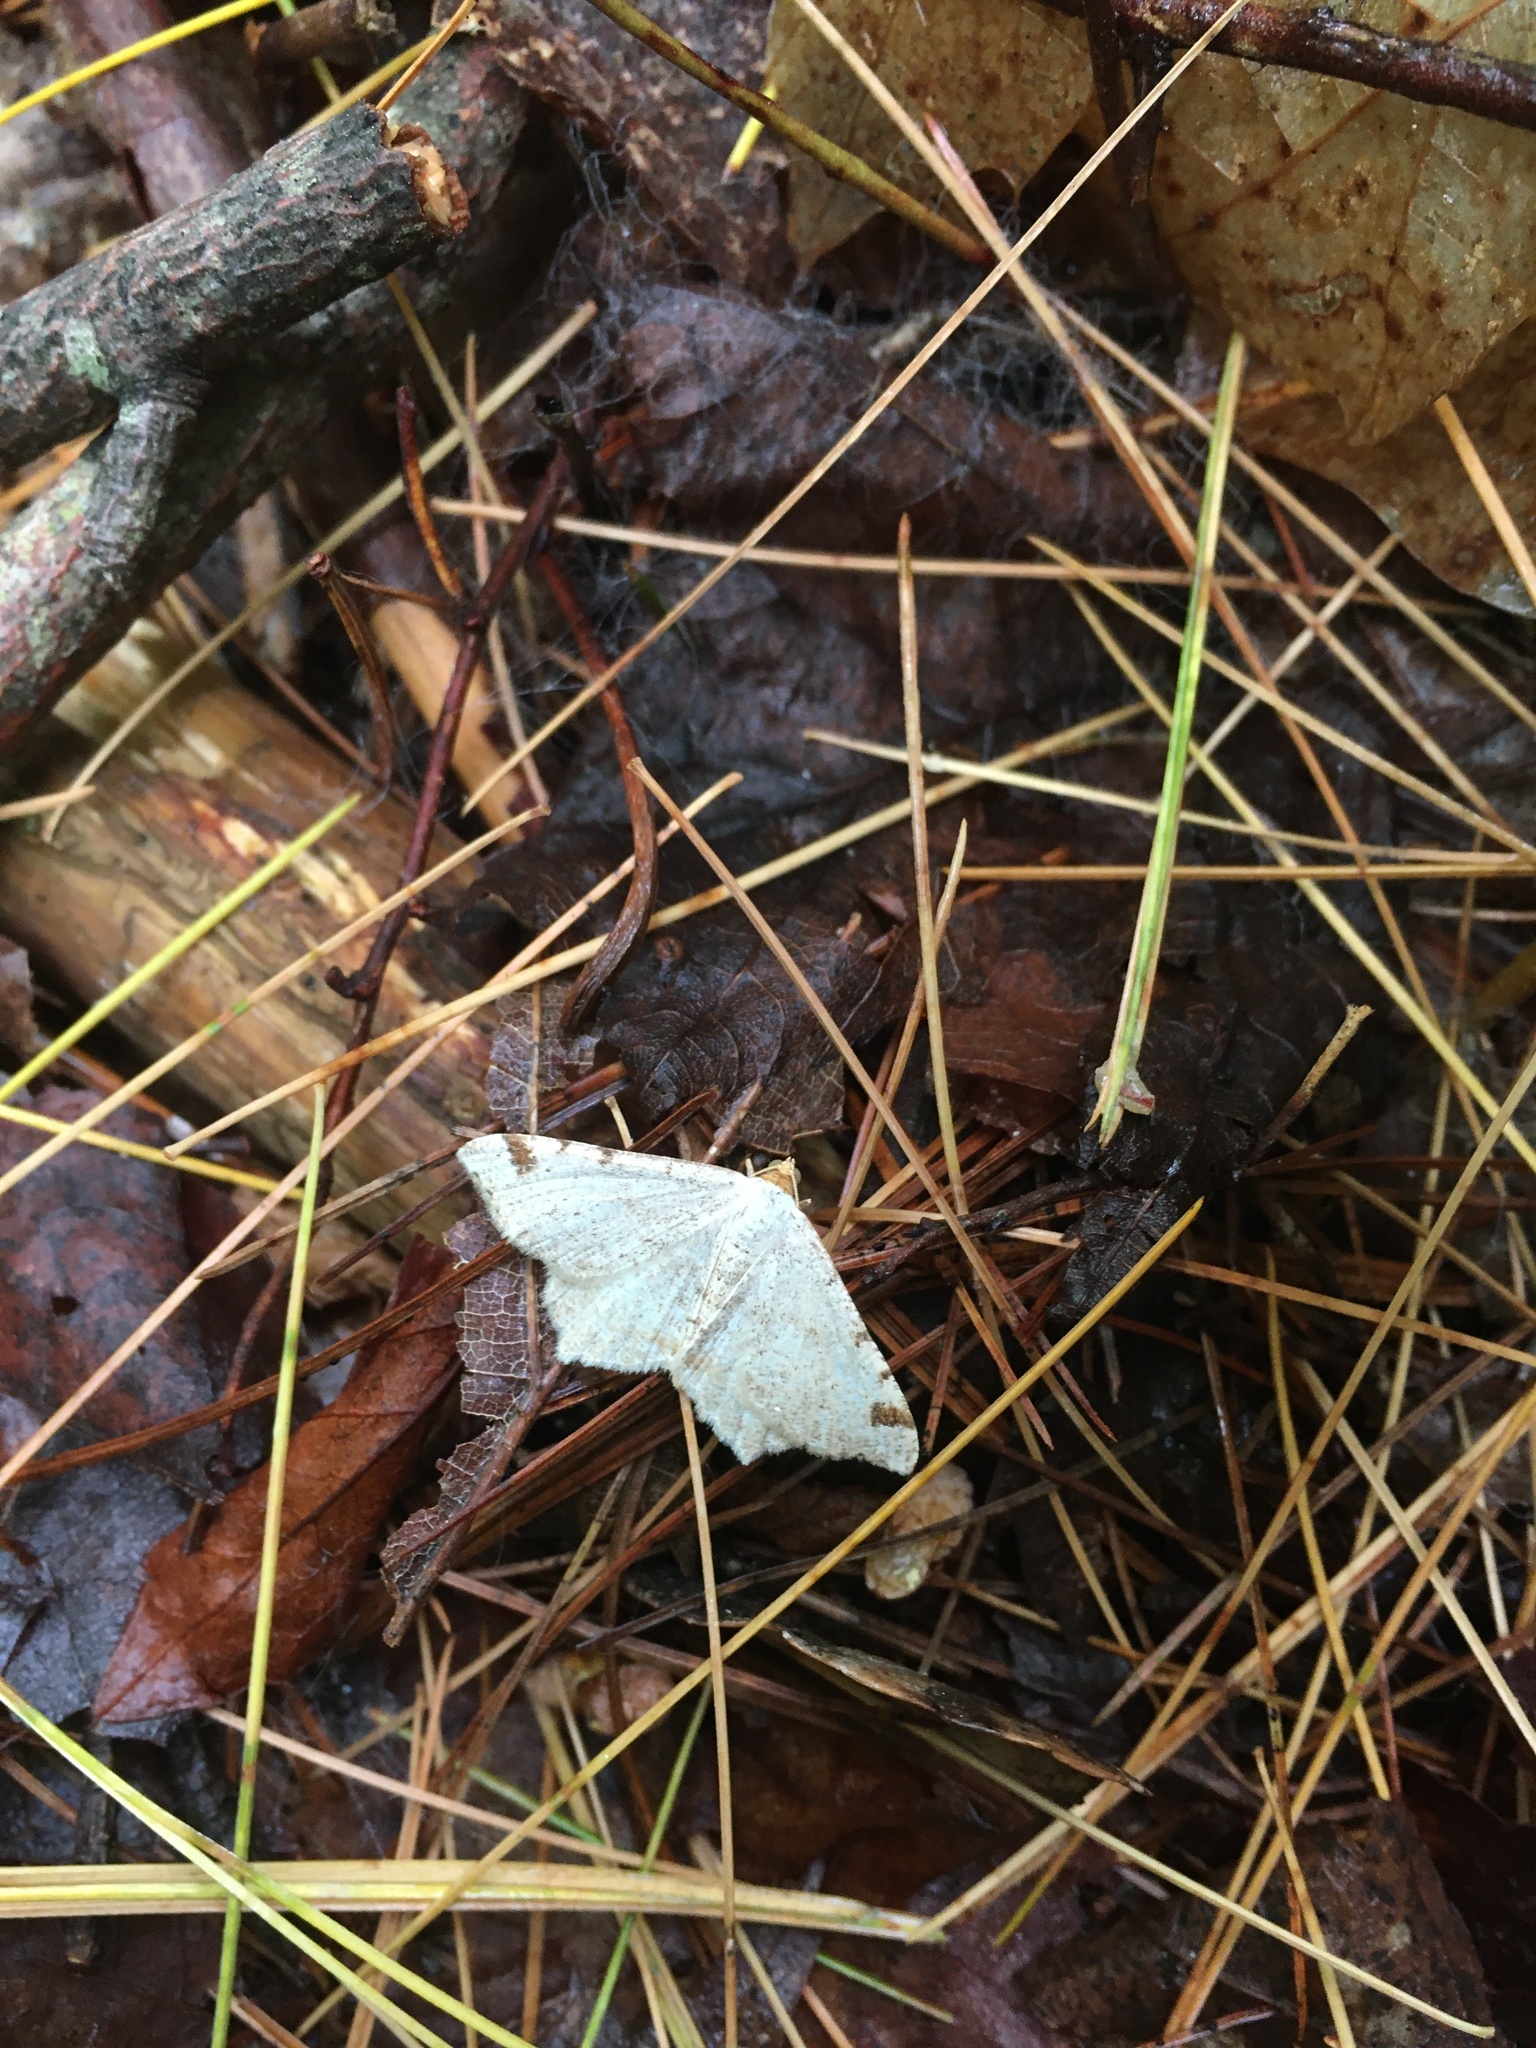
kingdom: Animalia
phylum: Arthropoda
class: Insecta
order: Lepidoptera
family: Geometridae
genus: Macaria
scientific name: Macaria bisignata
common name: Red-headed inchworm
